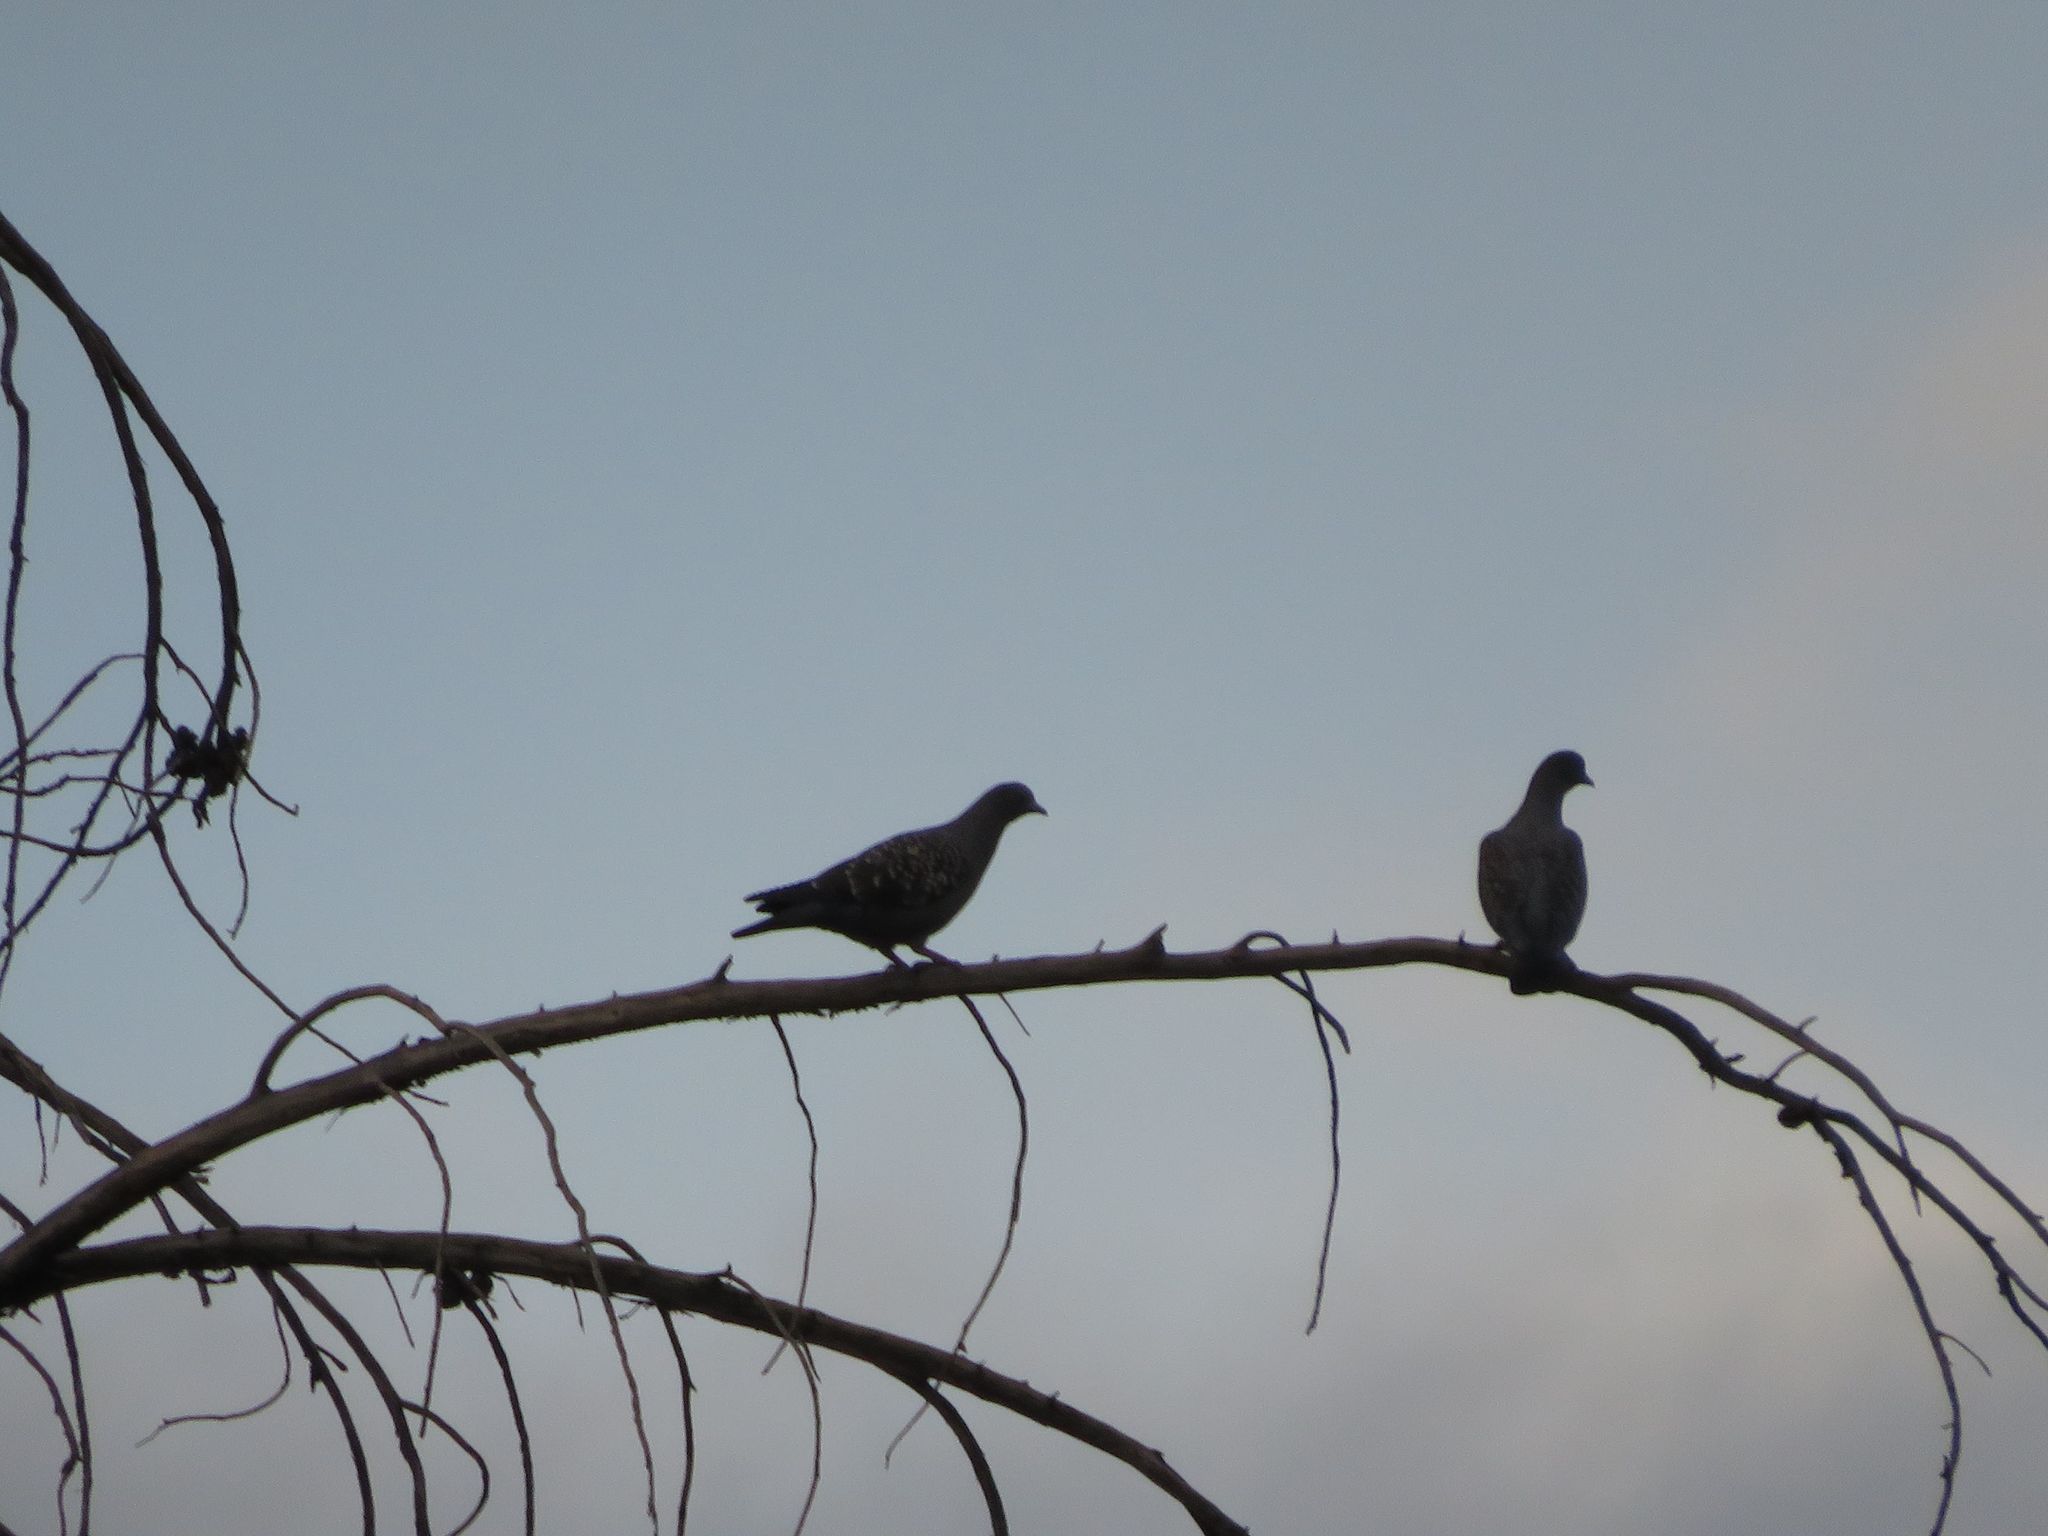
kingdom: Animalia
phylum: Chordata
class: Aves
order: Columbiformes
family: Columbidae
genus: Patagioenas
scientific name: Patagioenas maculosa
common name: Spot-winged pigeon
